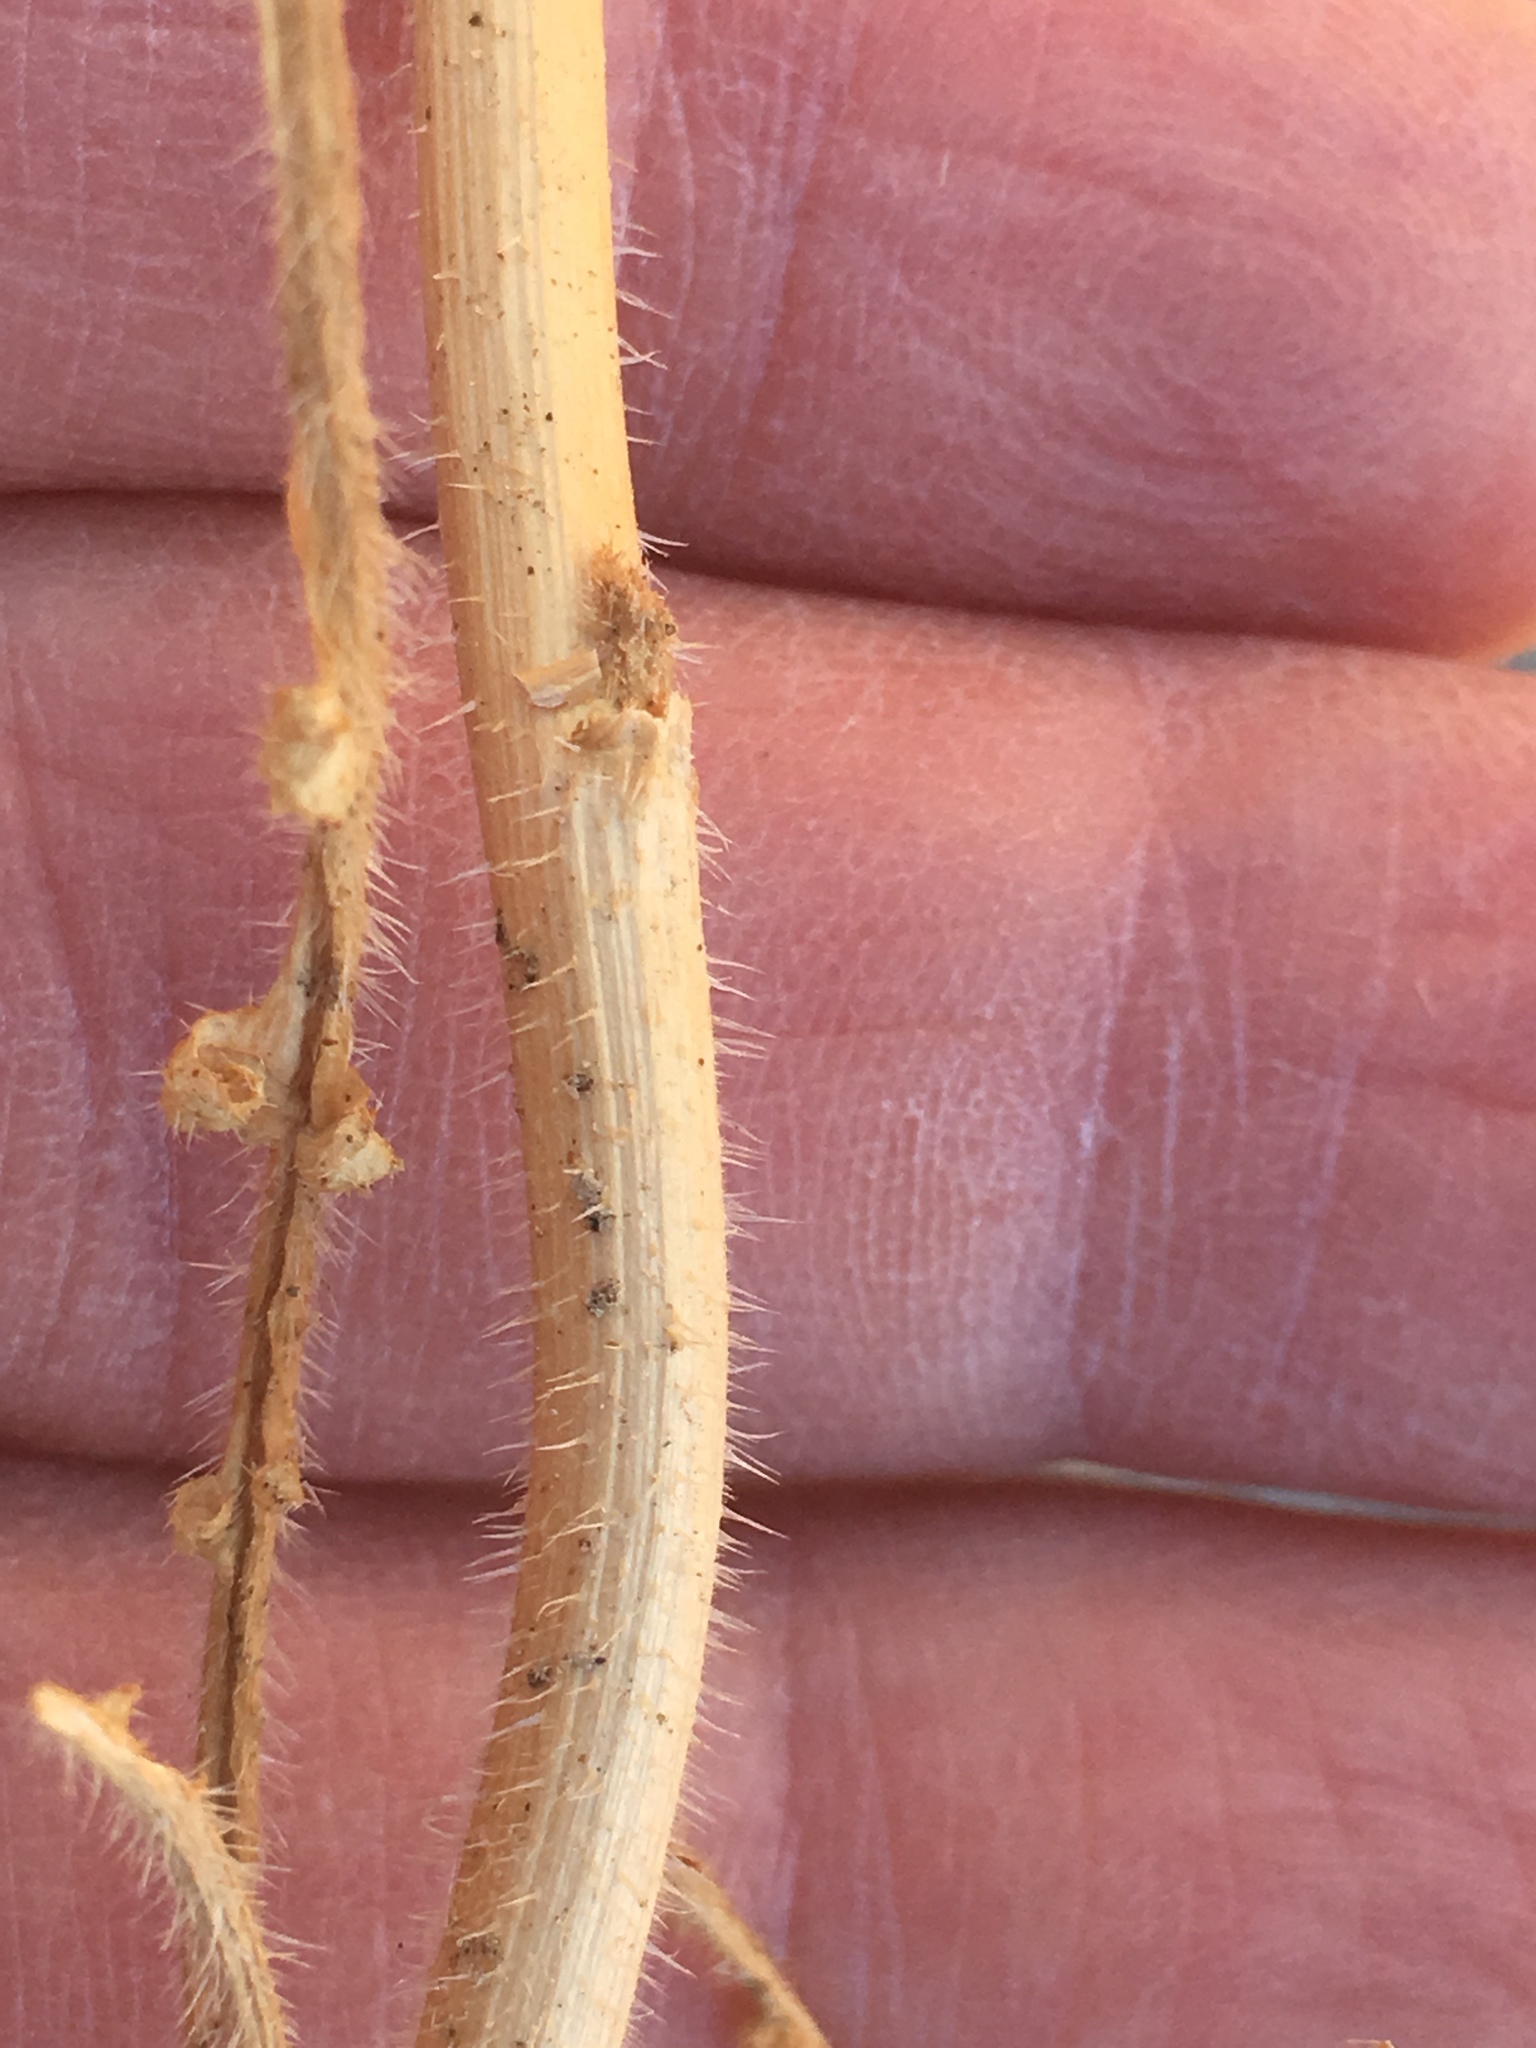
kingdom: Plantae
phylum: Tracheophyta
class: Magnoliopsida
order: Brassicales
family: Brassicaceae
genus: Brassica
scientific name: Brassica tournefortii
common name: Pale cabbage
